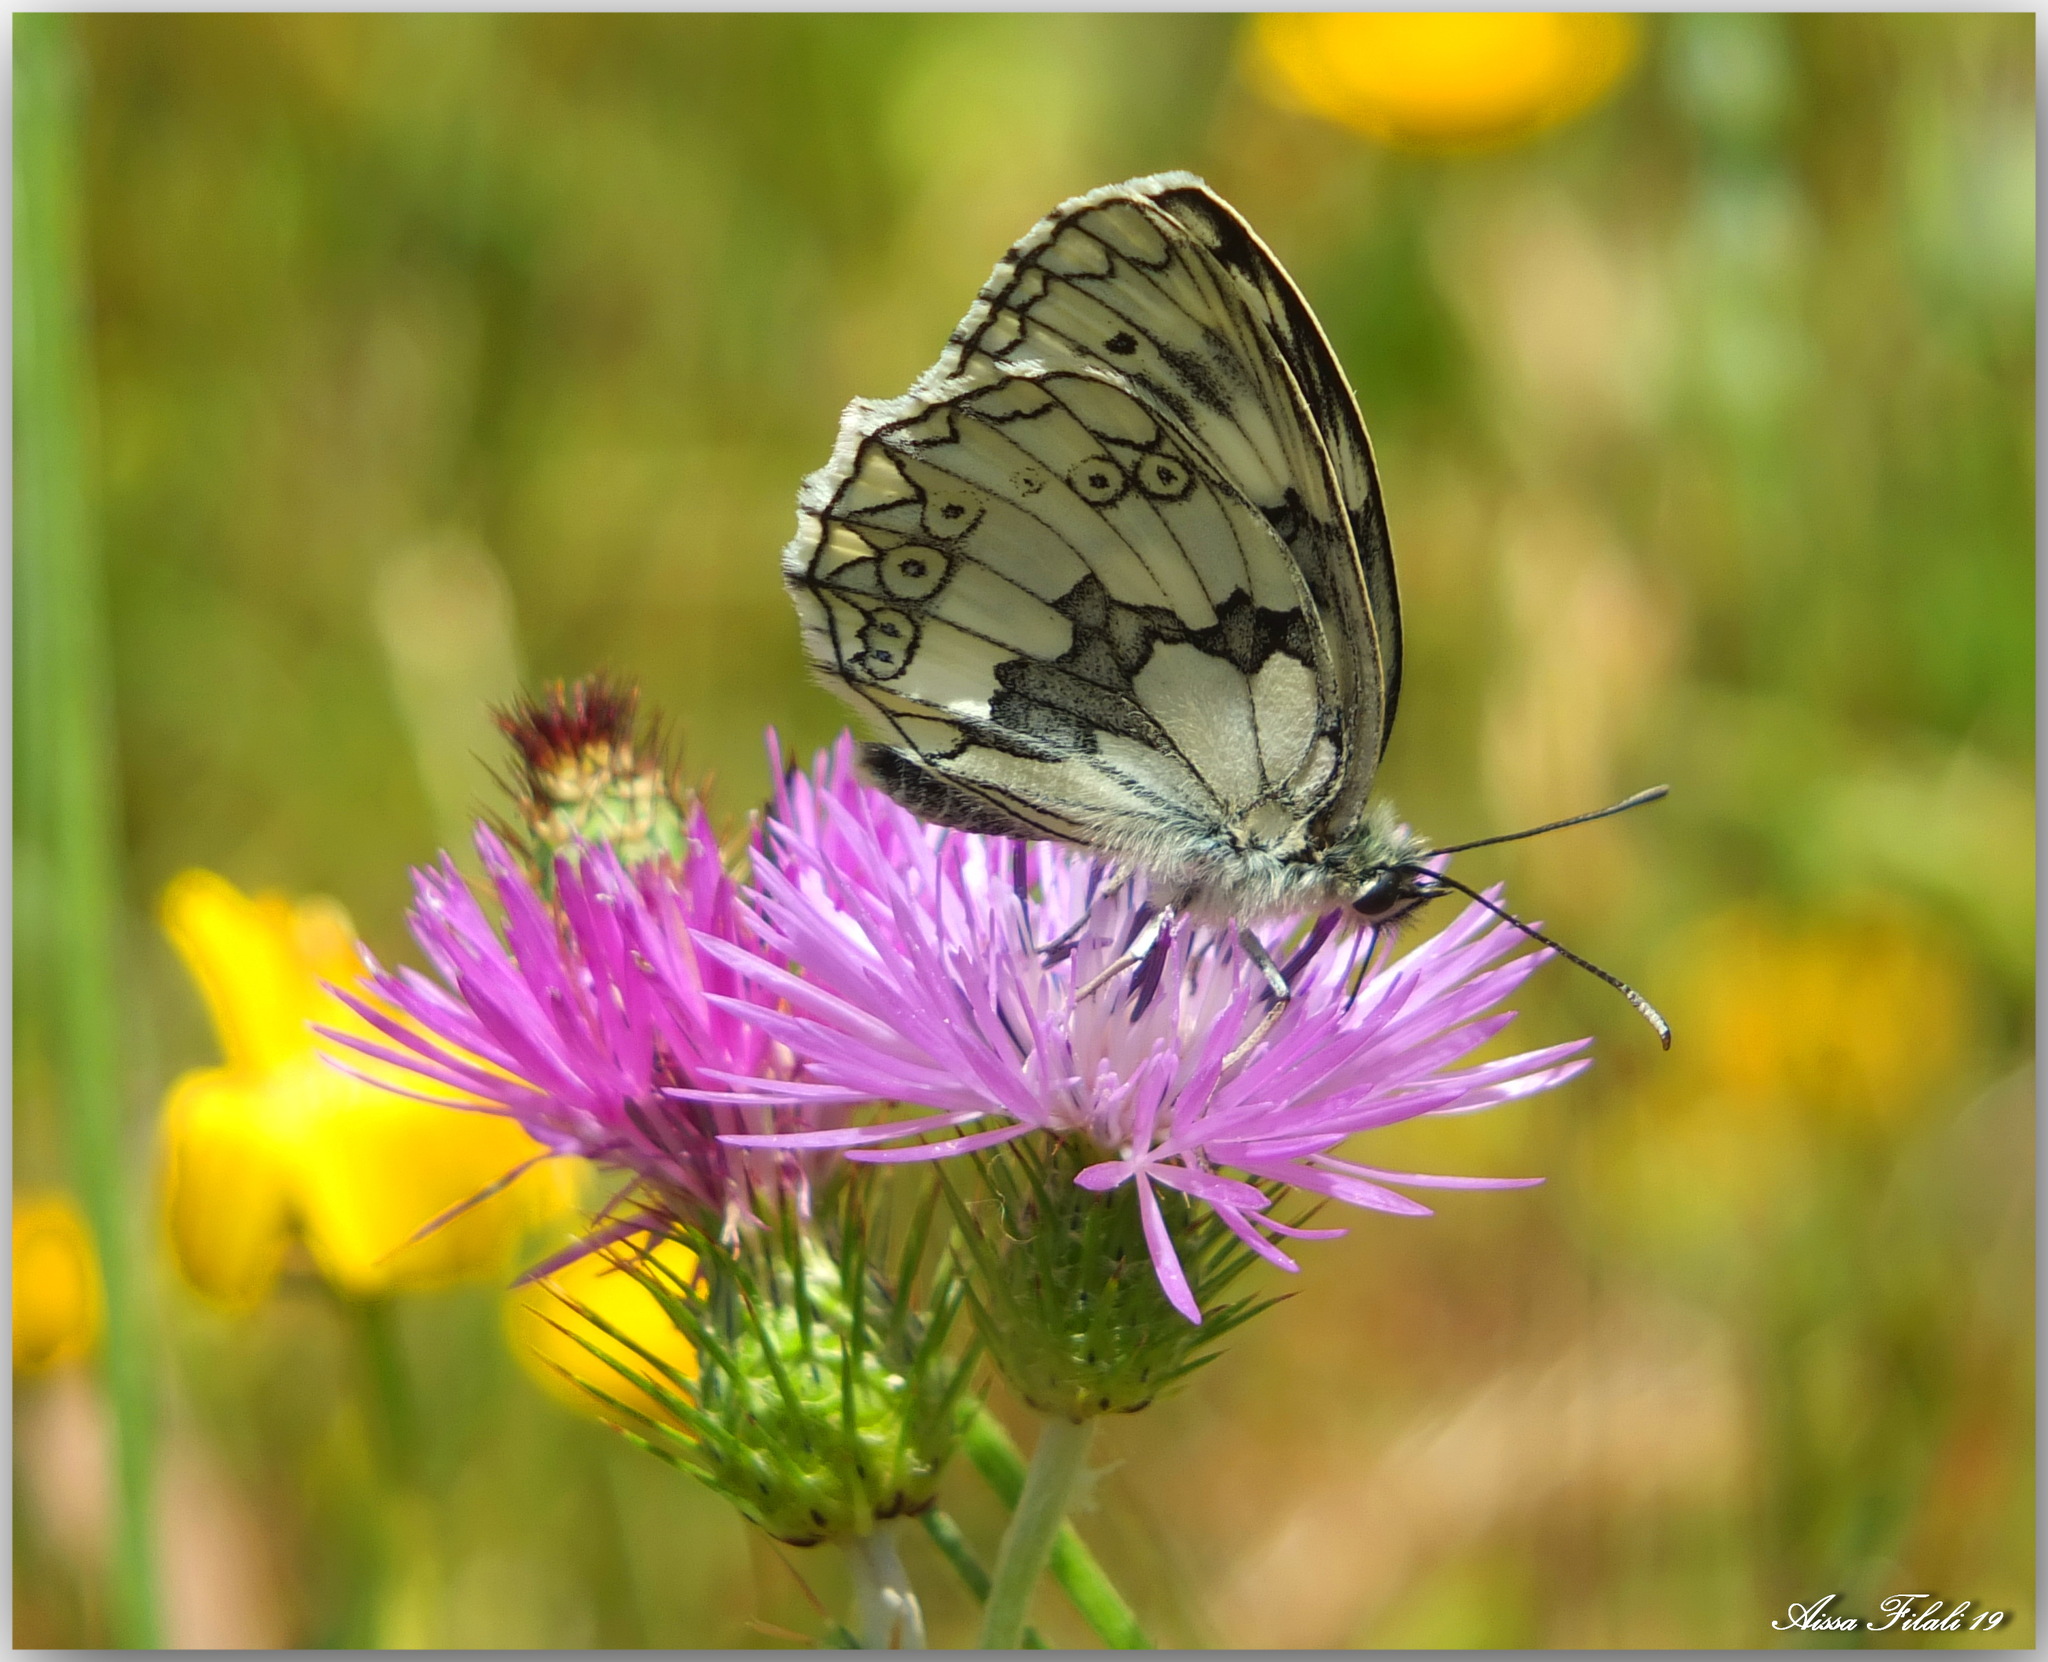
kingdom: Animalia
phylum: Arthropoda
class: Insecta
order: Lepidoptera
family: Nymphalidae
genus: Melanargia
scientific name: Melanargia lucasi
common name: Moroccan marbled white
